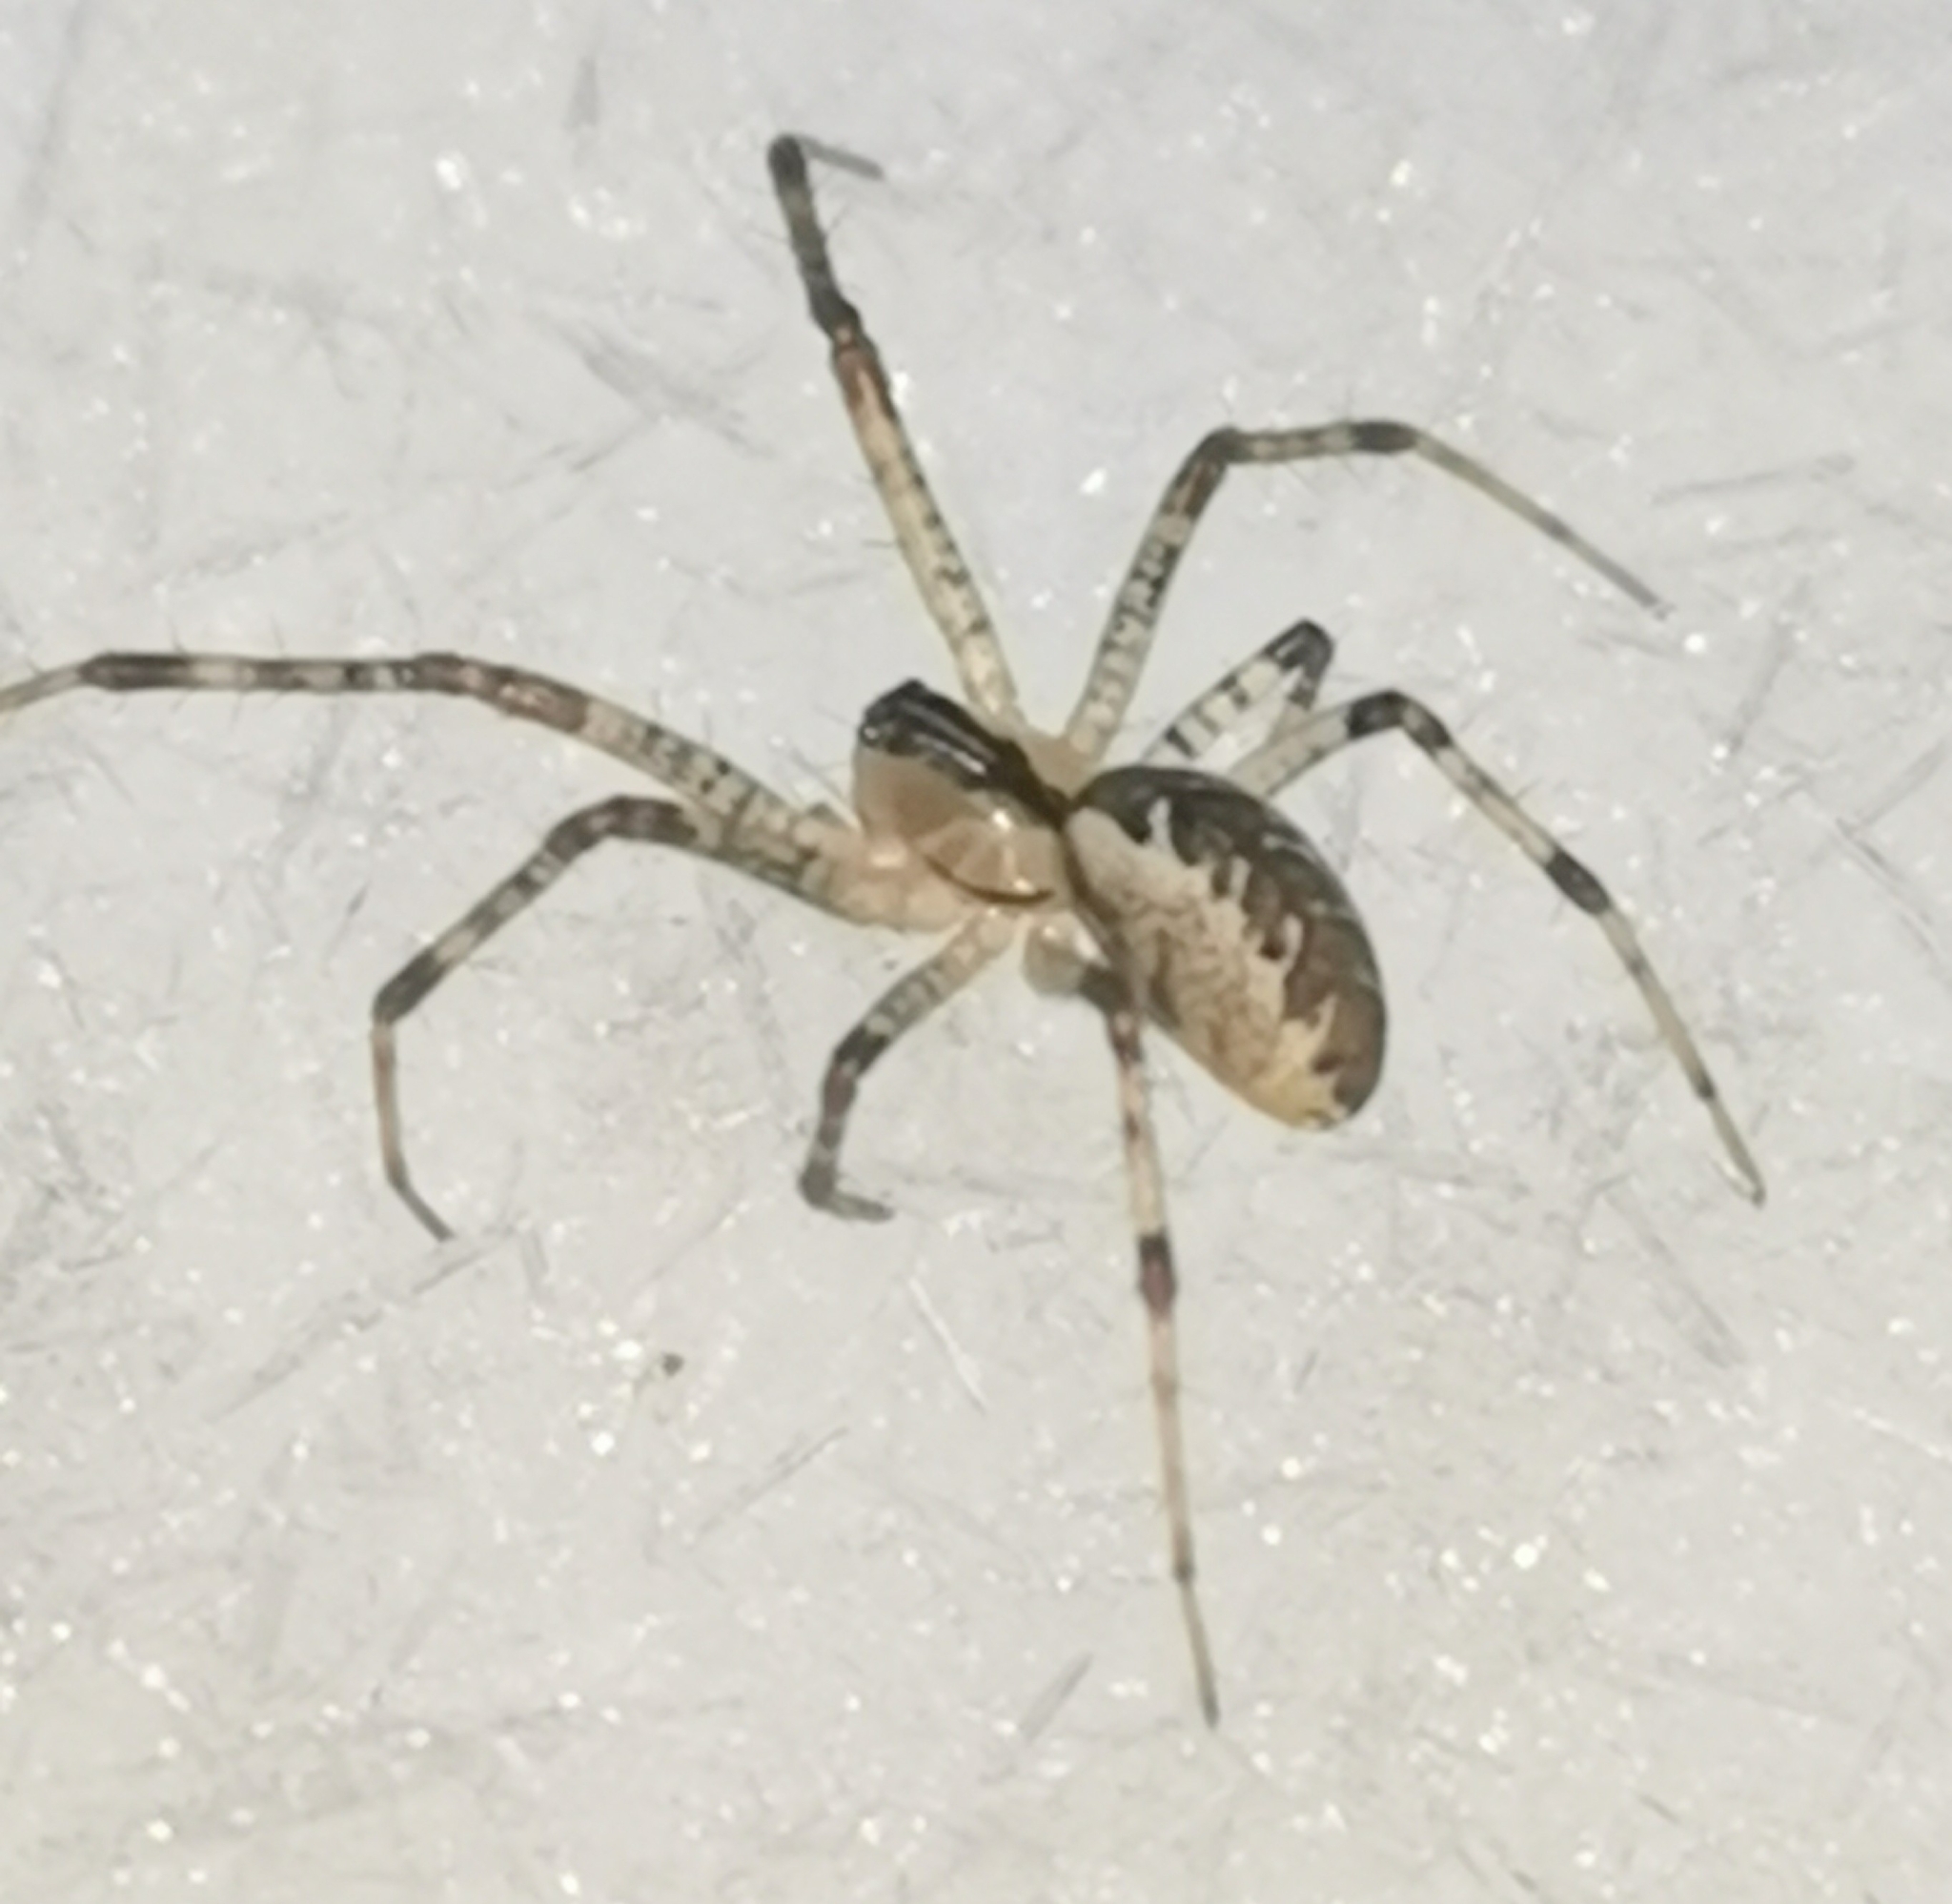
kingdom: Animalia
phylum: Arthropoda
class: Arachnida
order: Araneae
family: Linyphiidae
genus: Pityohyphantes
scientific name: Pityohyphantes phrygianus
